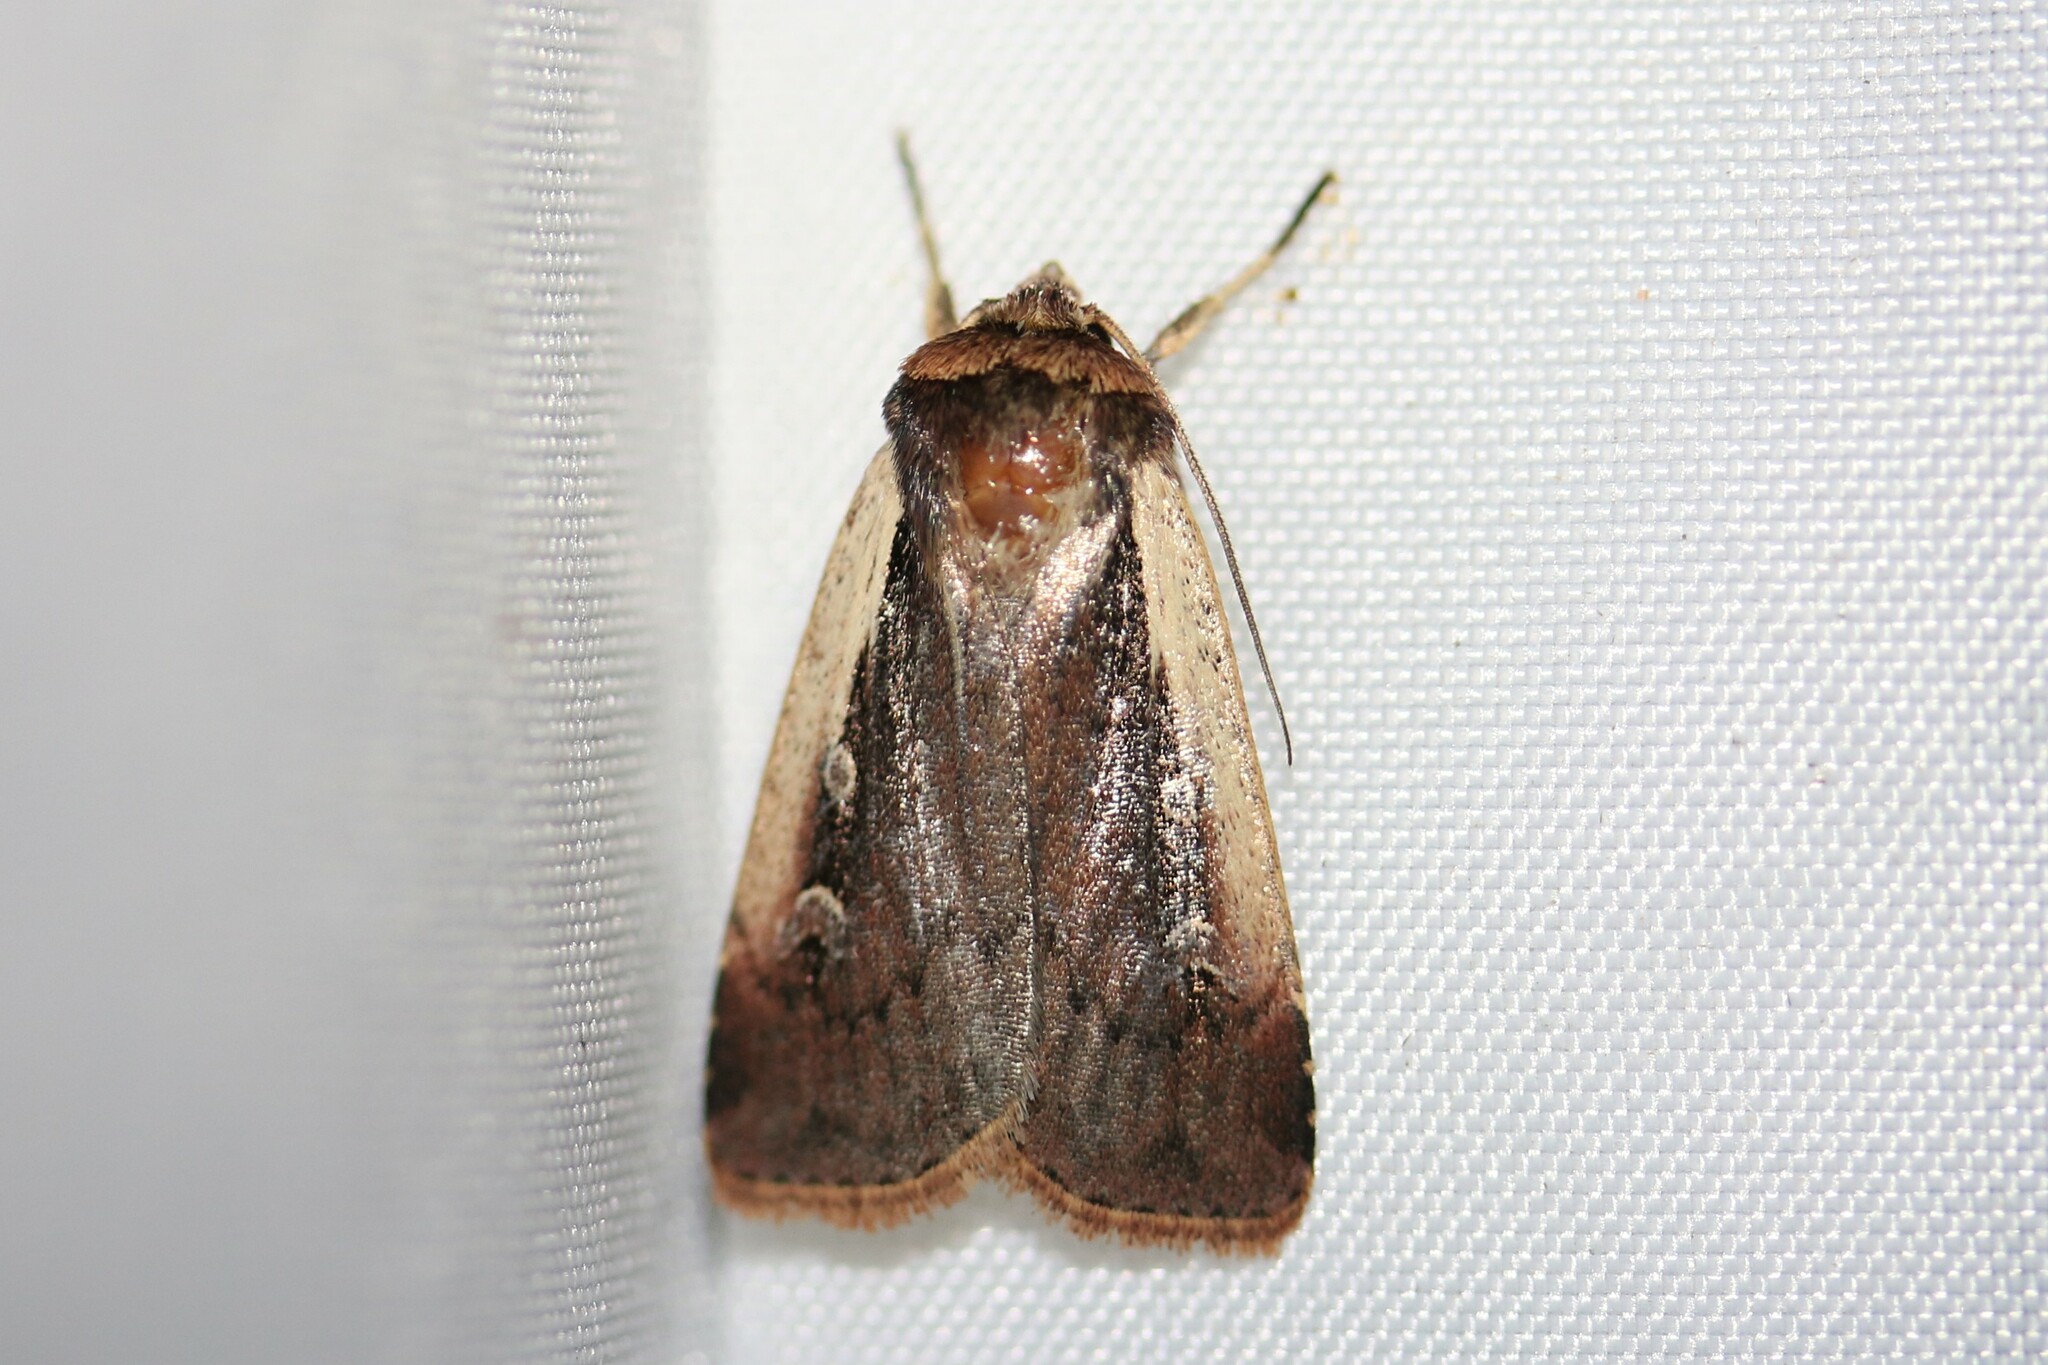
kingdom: Animalia
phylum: Arthropoda
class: Insecta
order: Lepidoptera
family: Noctuidae
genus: Ochropleura
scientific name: Ochropleura plecta
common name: Flame shoulder
